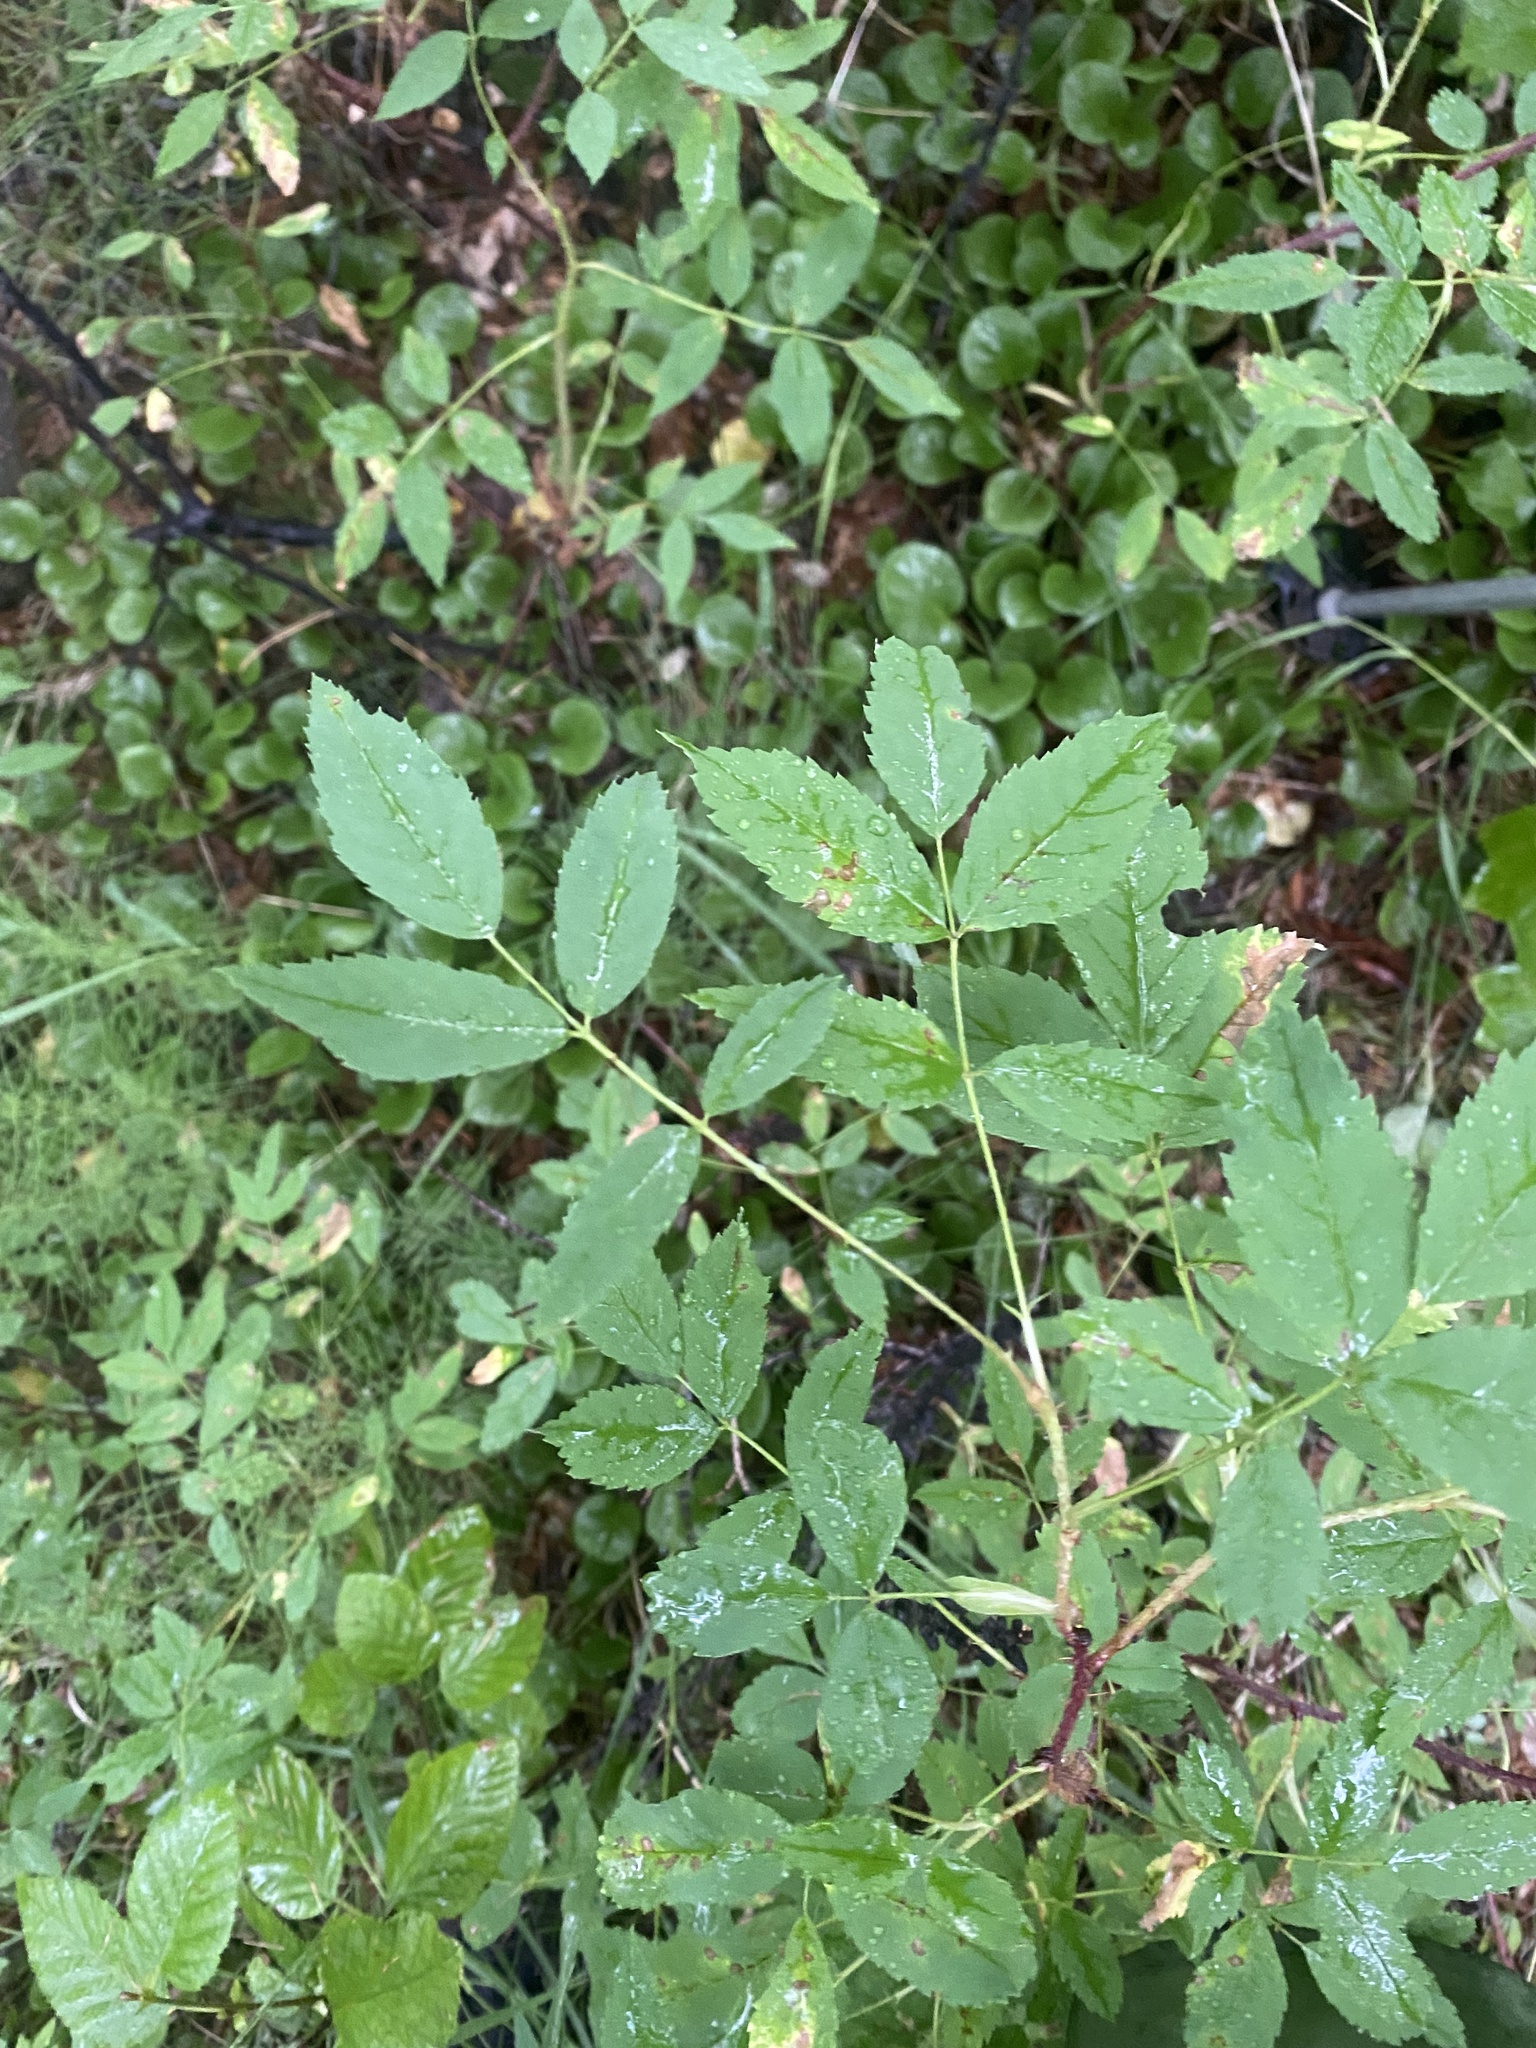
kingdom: Plantae
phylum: Tracheophyta
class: Magnoliopsida
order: Rosales
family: Rosaceae
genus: Rosa
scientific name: Rosa acicularis
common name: Prickly rose
